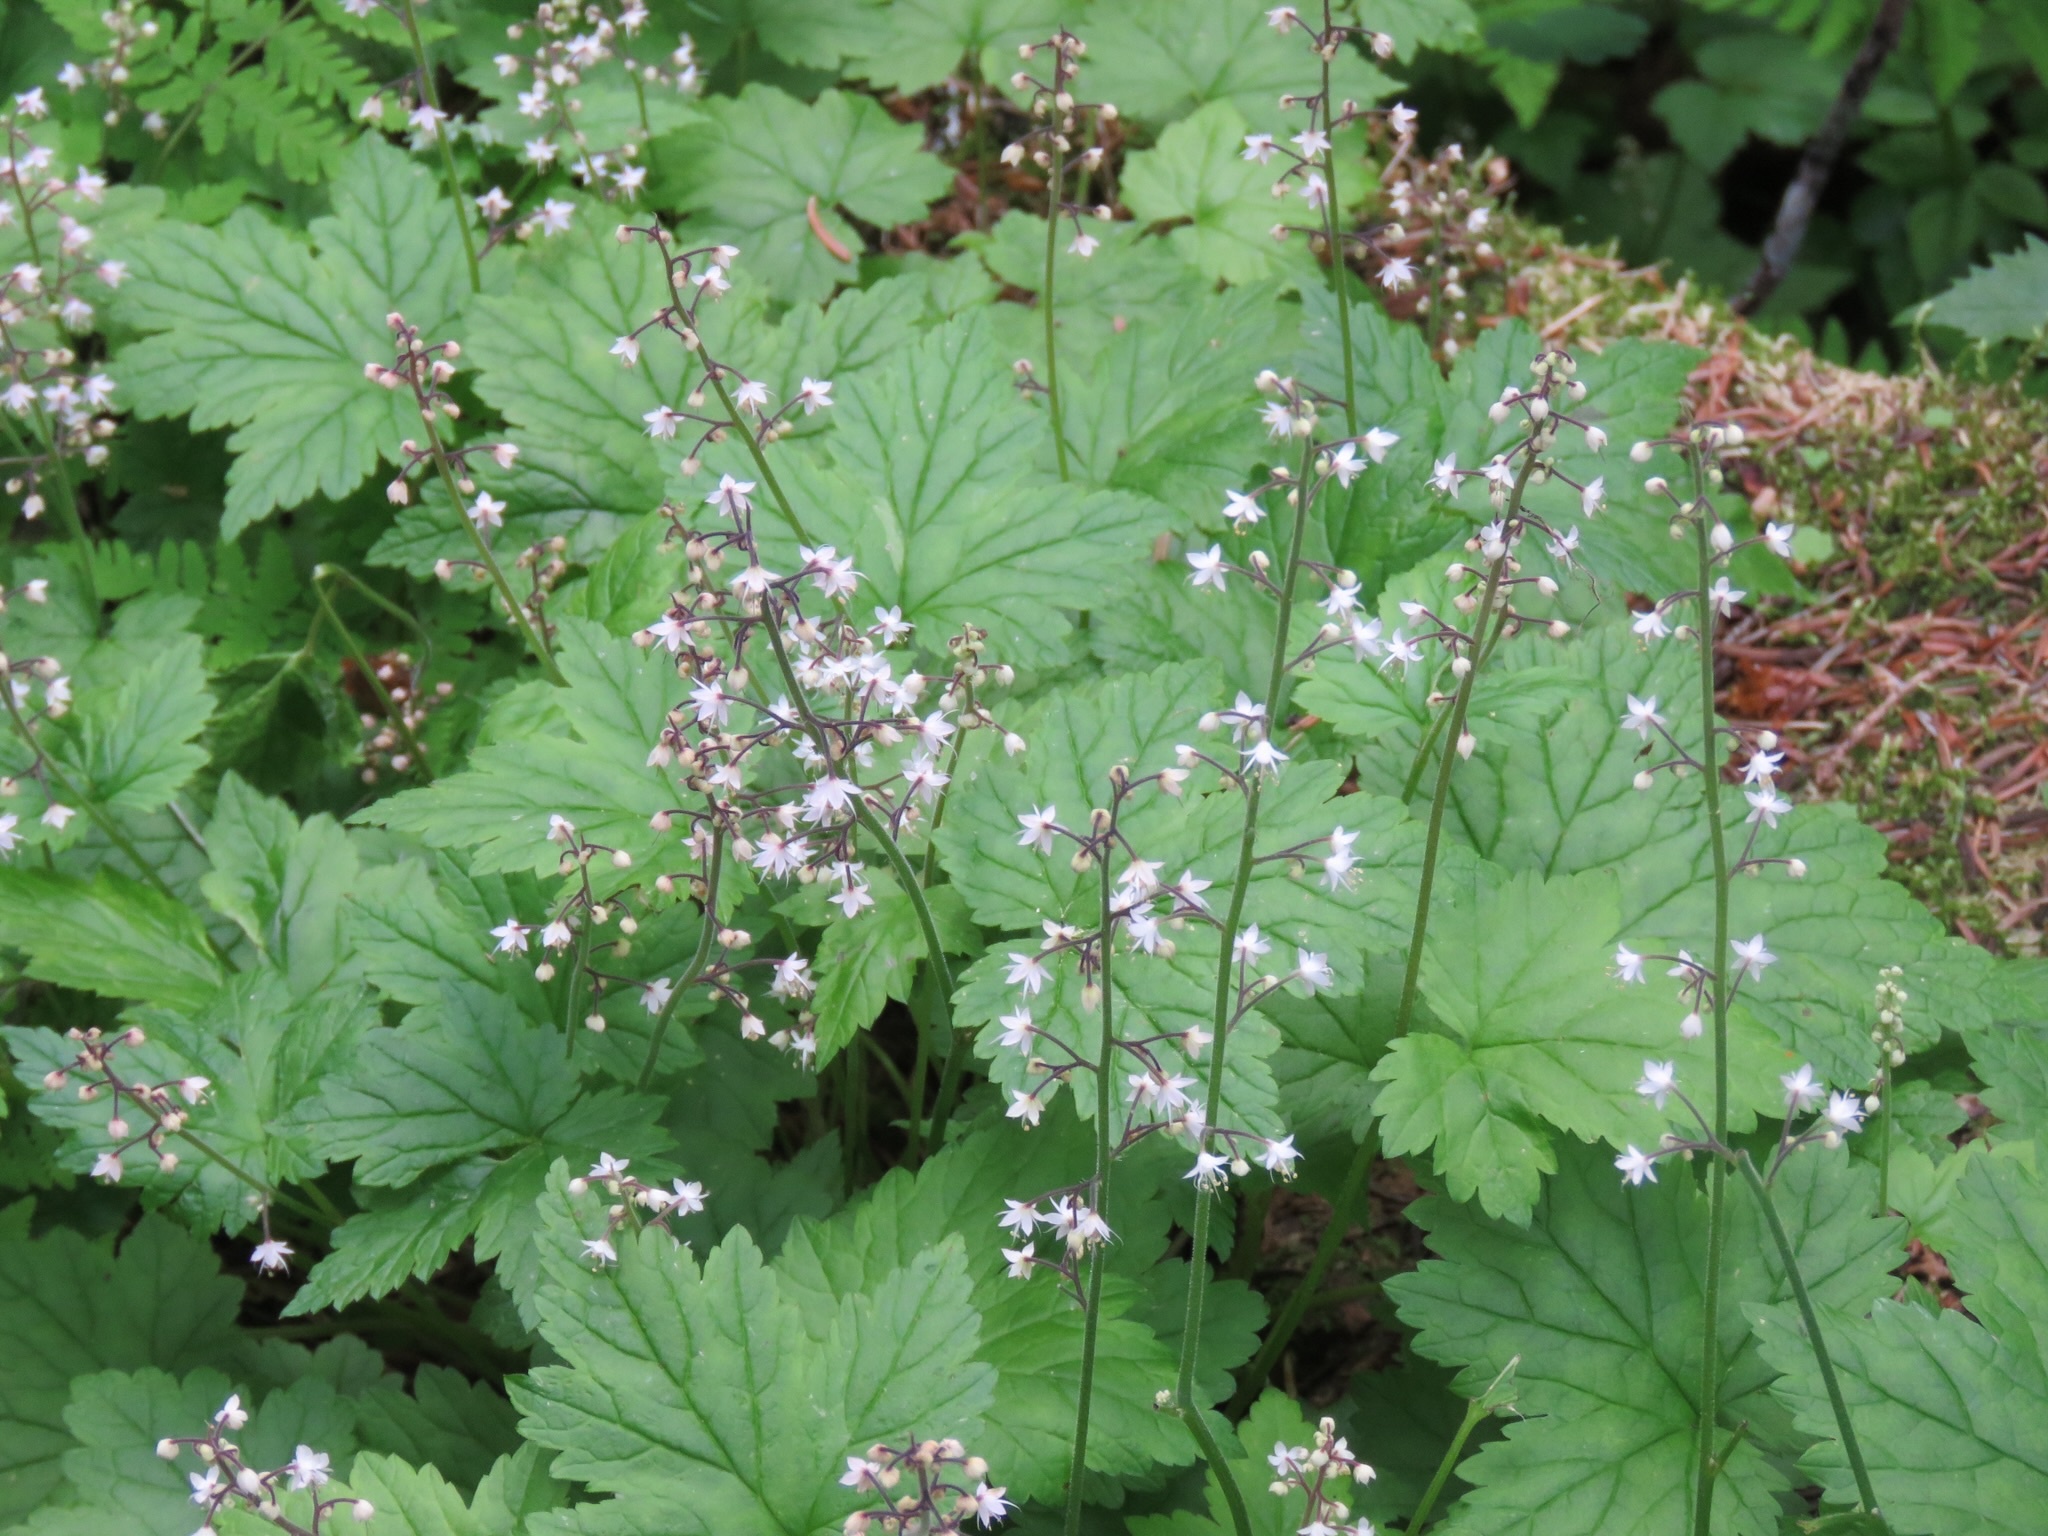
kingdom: Plantae
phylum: Tracheophyta
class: Magnoliopsida
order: Saxifragales
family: Saxifragaceae
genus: Tiarella
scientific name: Tiarella trifoliata
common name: Sugar-scoop
